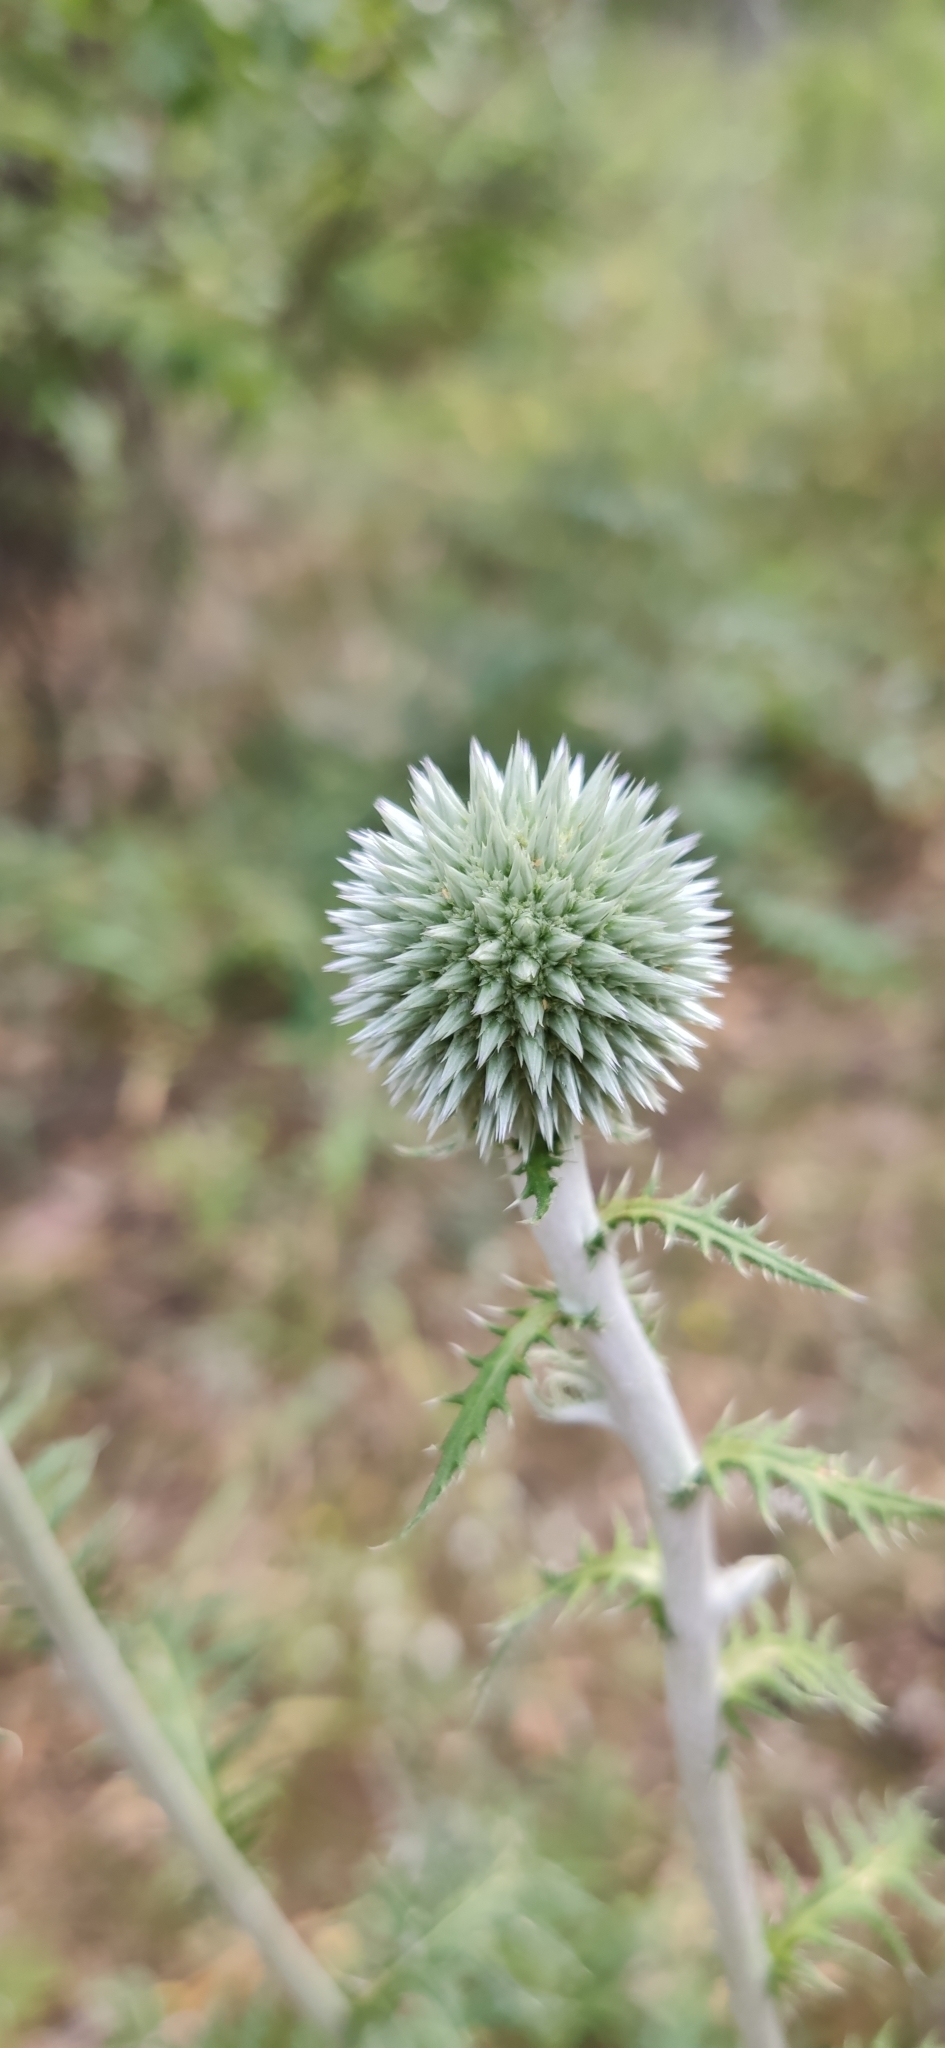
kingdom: Plantae
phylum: Tracheophyta
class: Magnoliopsida
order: Asterales
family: Asteraceae
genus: Echinops
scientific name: Echinops sphaerocephalus
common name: Glandular globe-thistle
